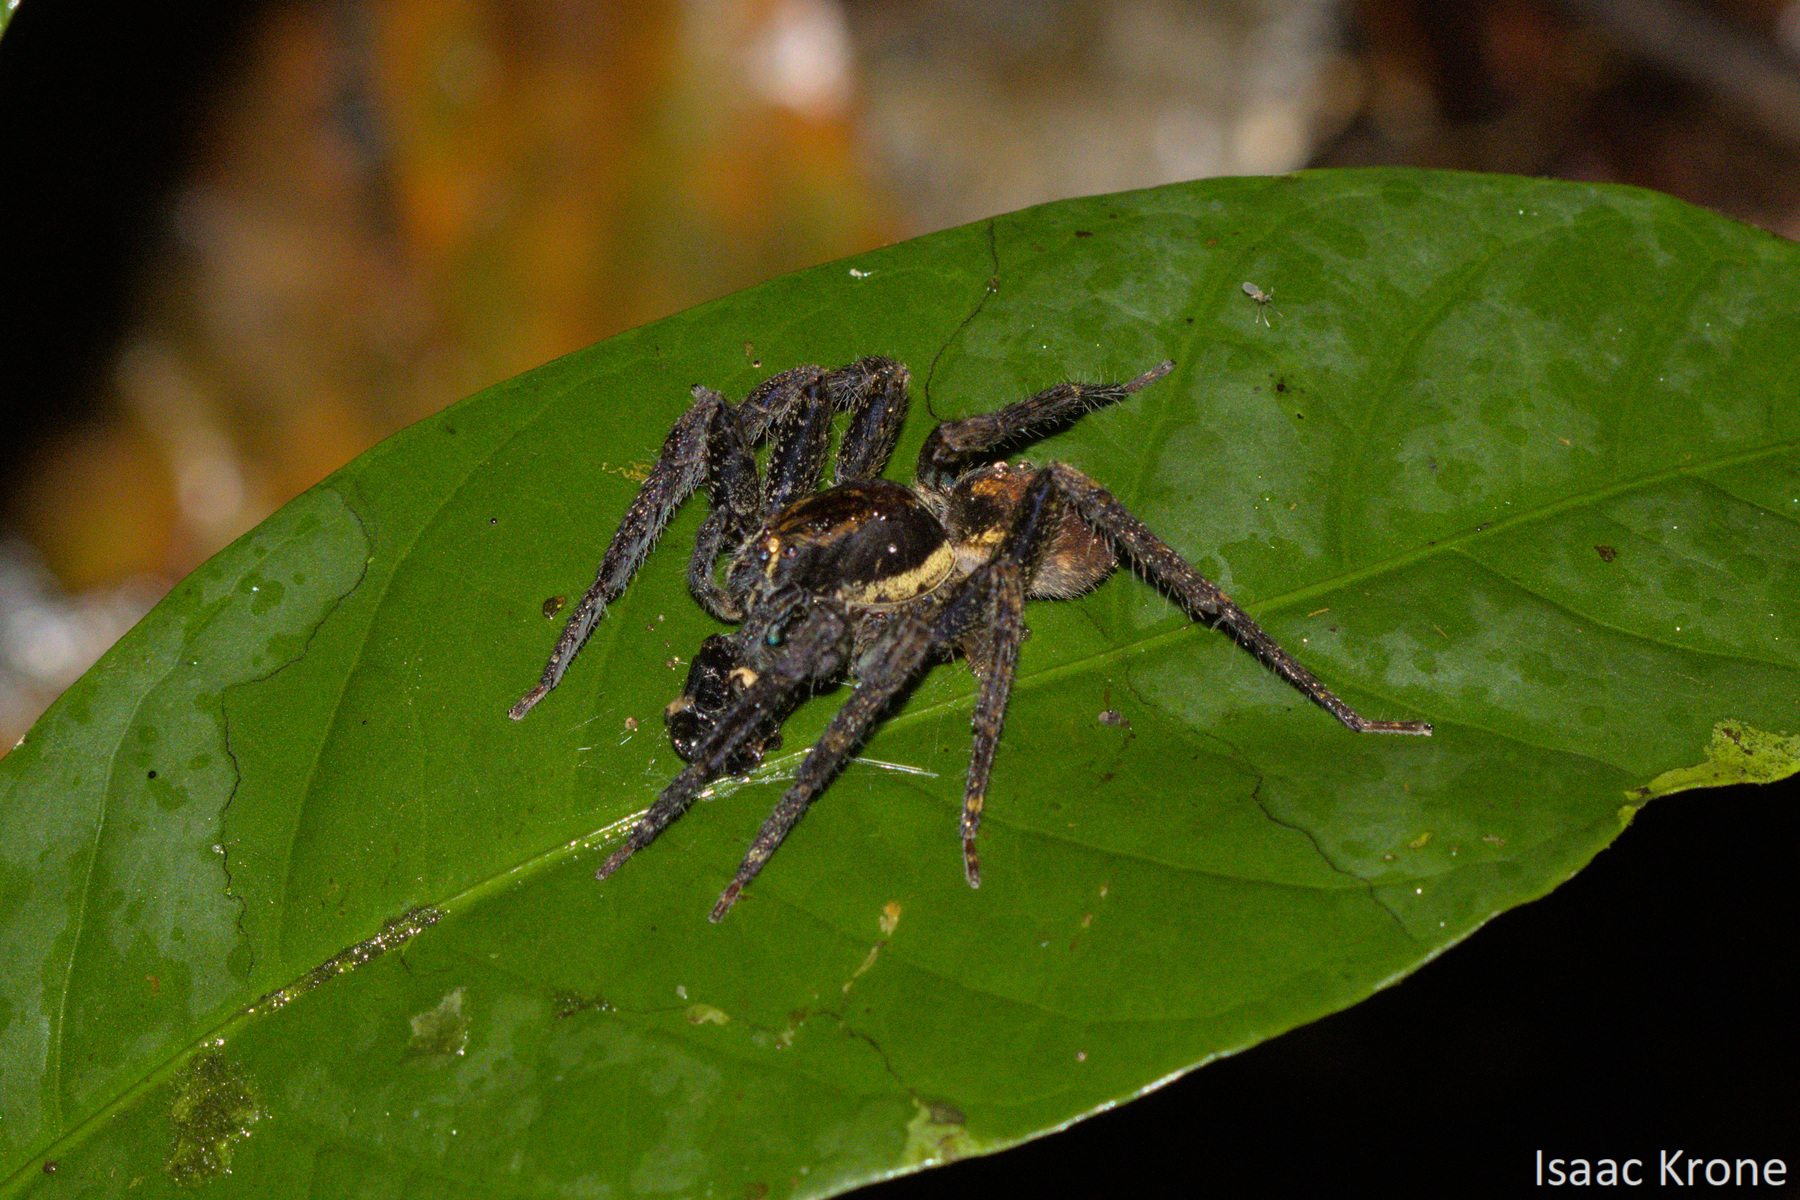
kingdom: Animalia
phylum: Arthropoda
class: Arachnida
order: Araneae
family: Ctenidae
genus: Centroctenus
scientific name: Centroctenus varzea
